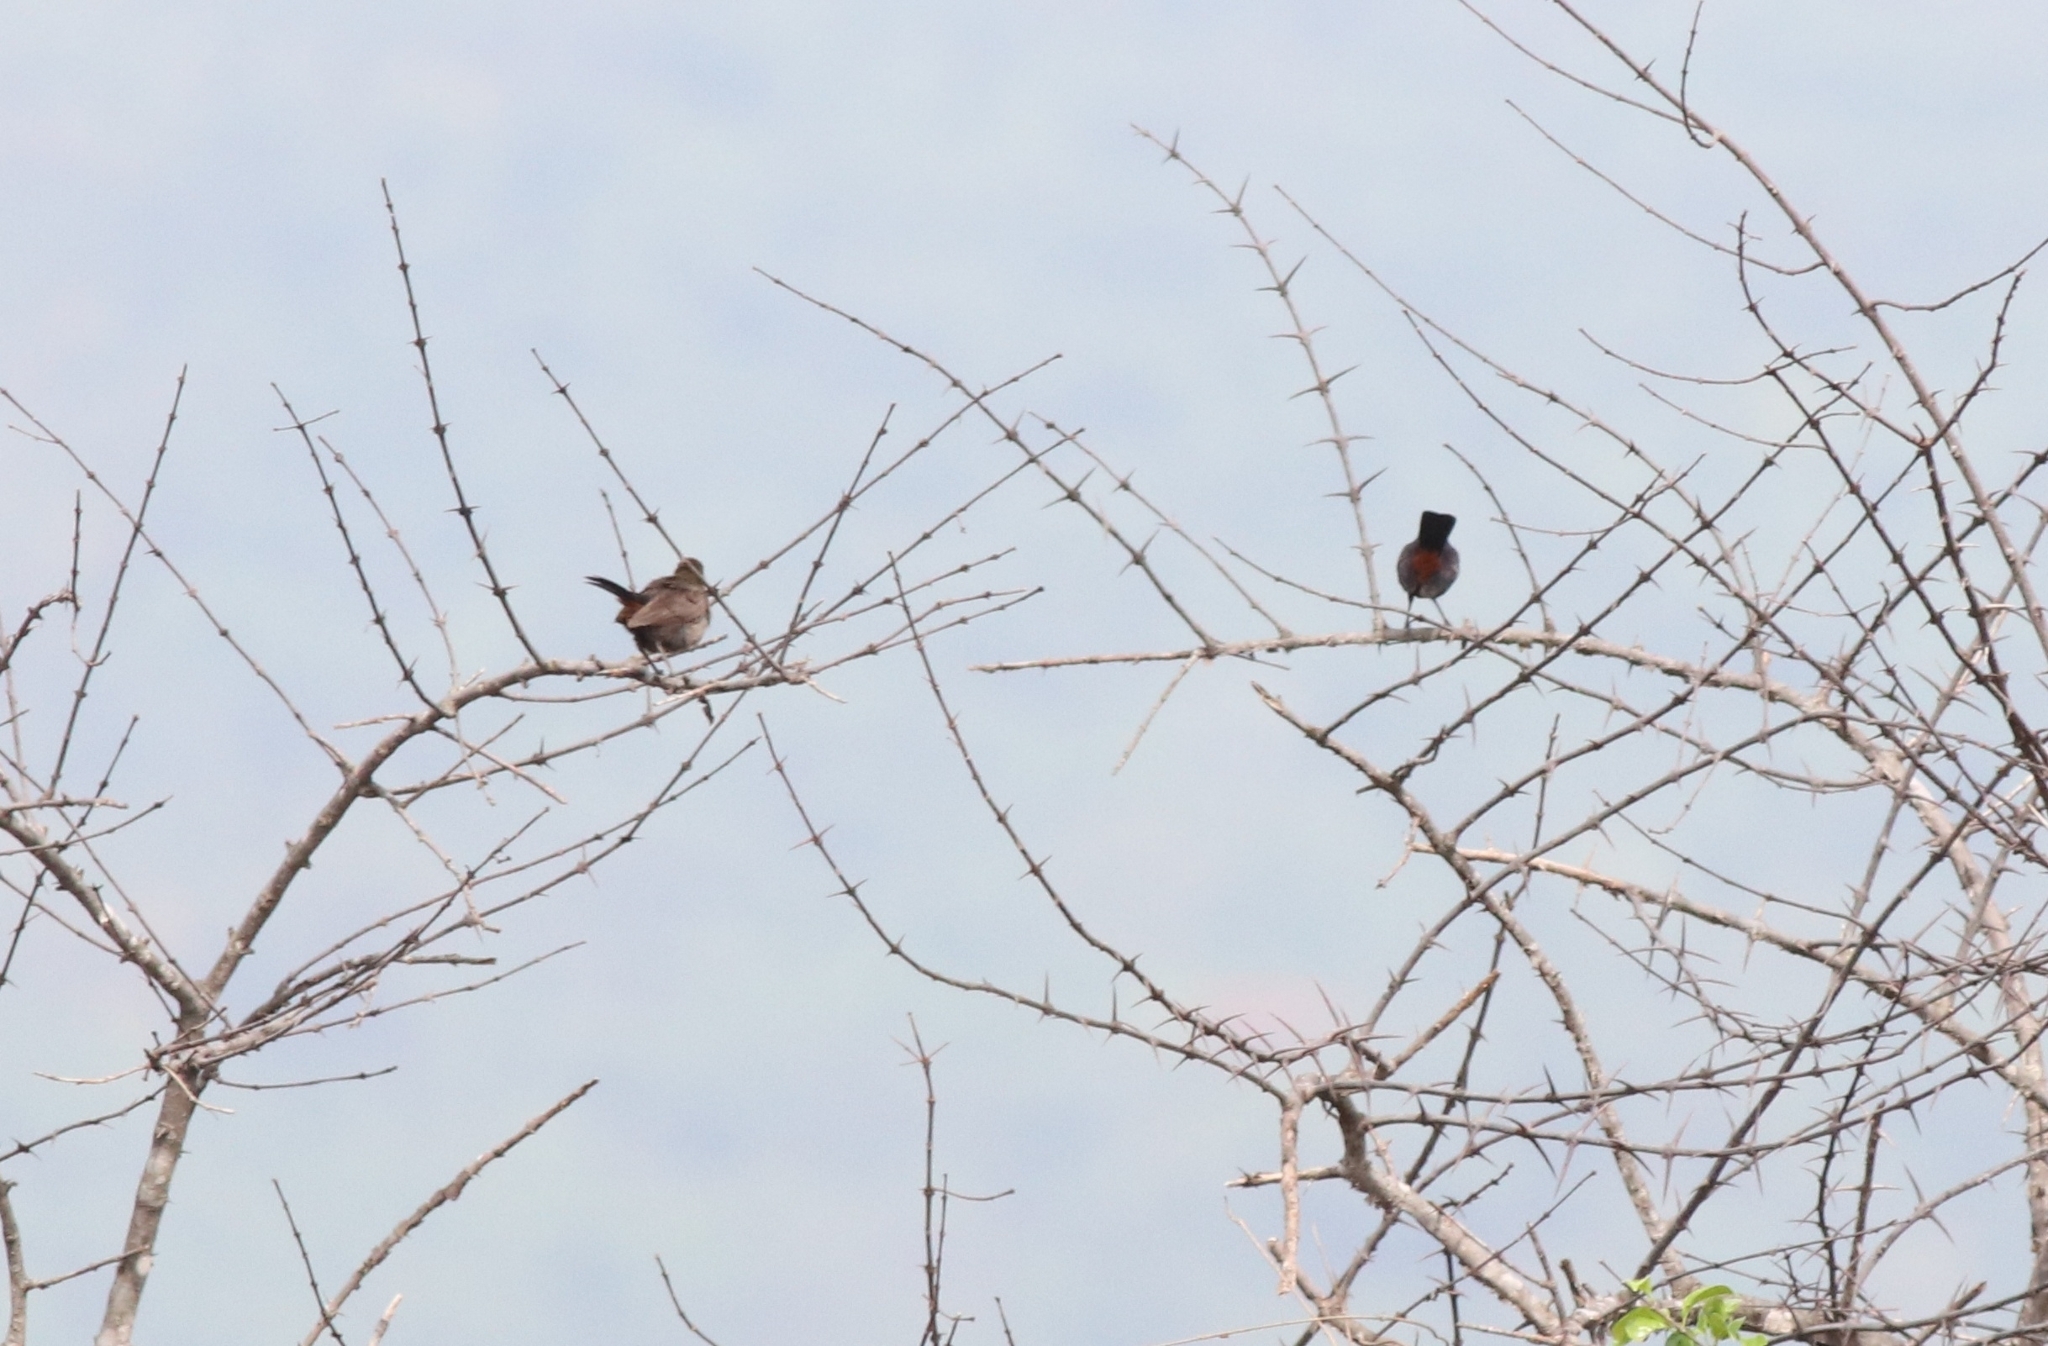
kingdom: Animalia
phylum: Chordata
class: Aves
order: Passeriformes
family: Muscicapidae
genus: Saxicoloides
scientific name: Saxicoloides fulicatus
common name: Indian robin
